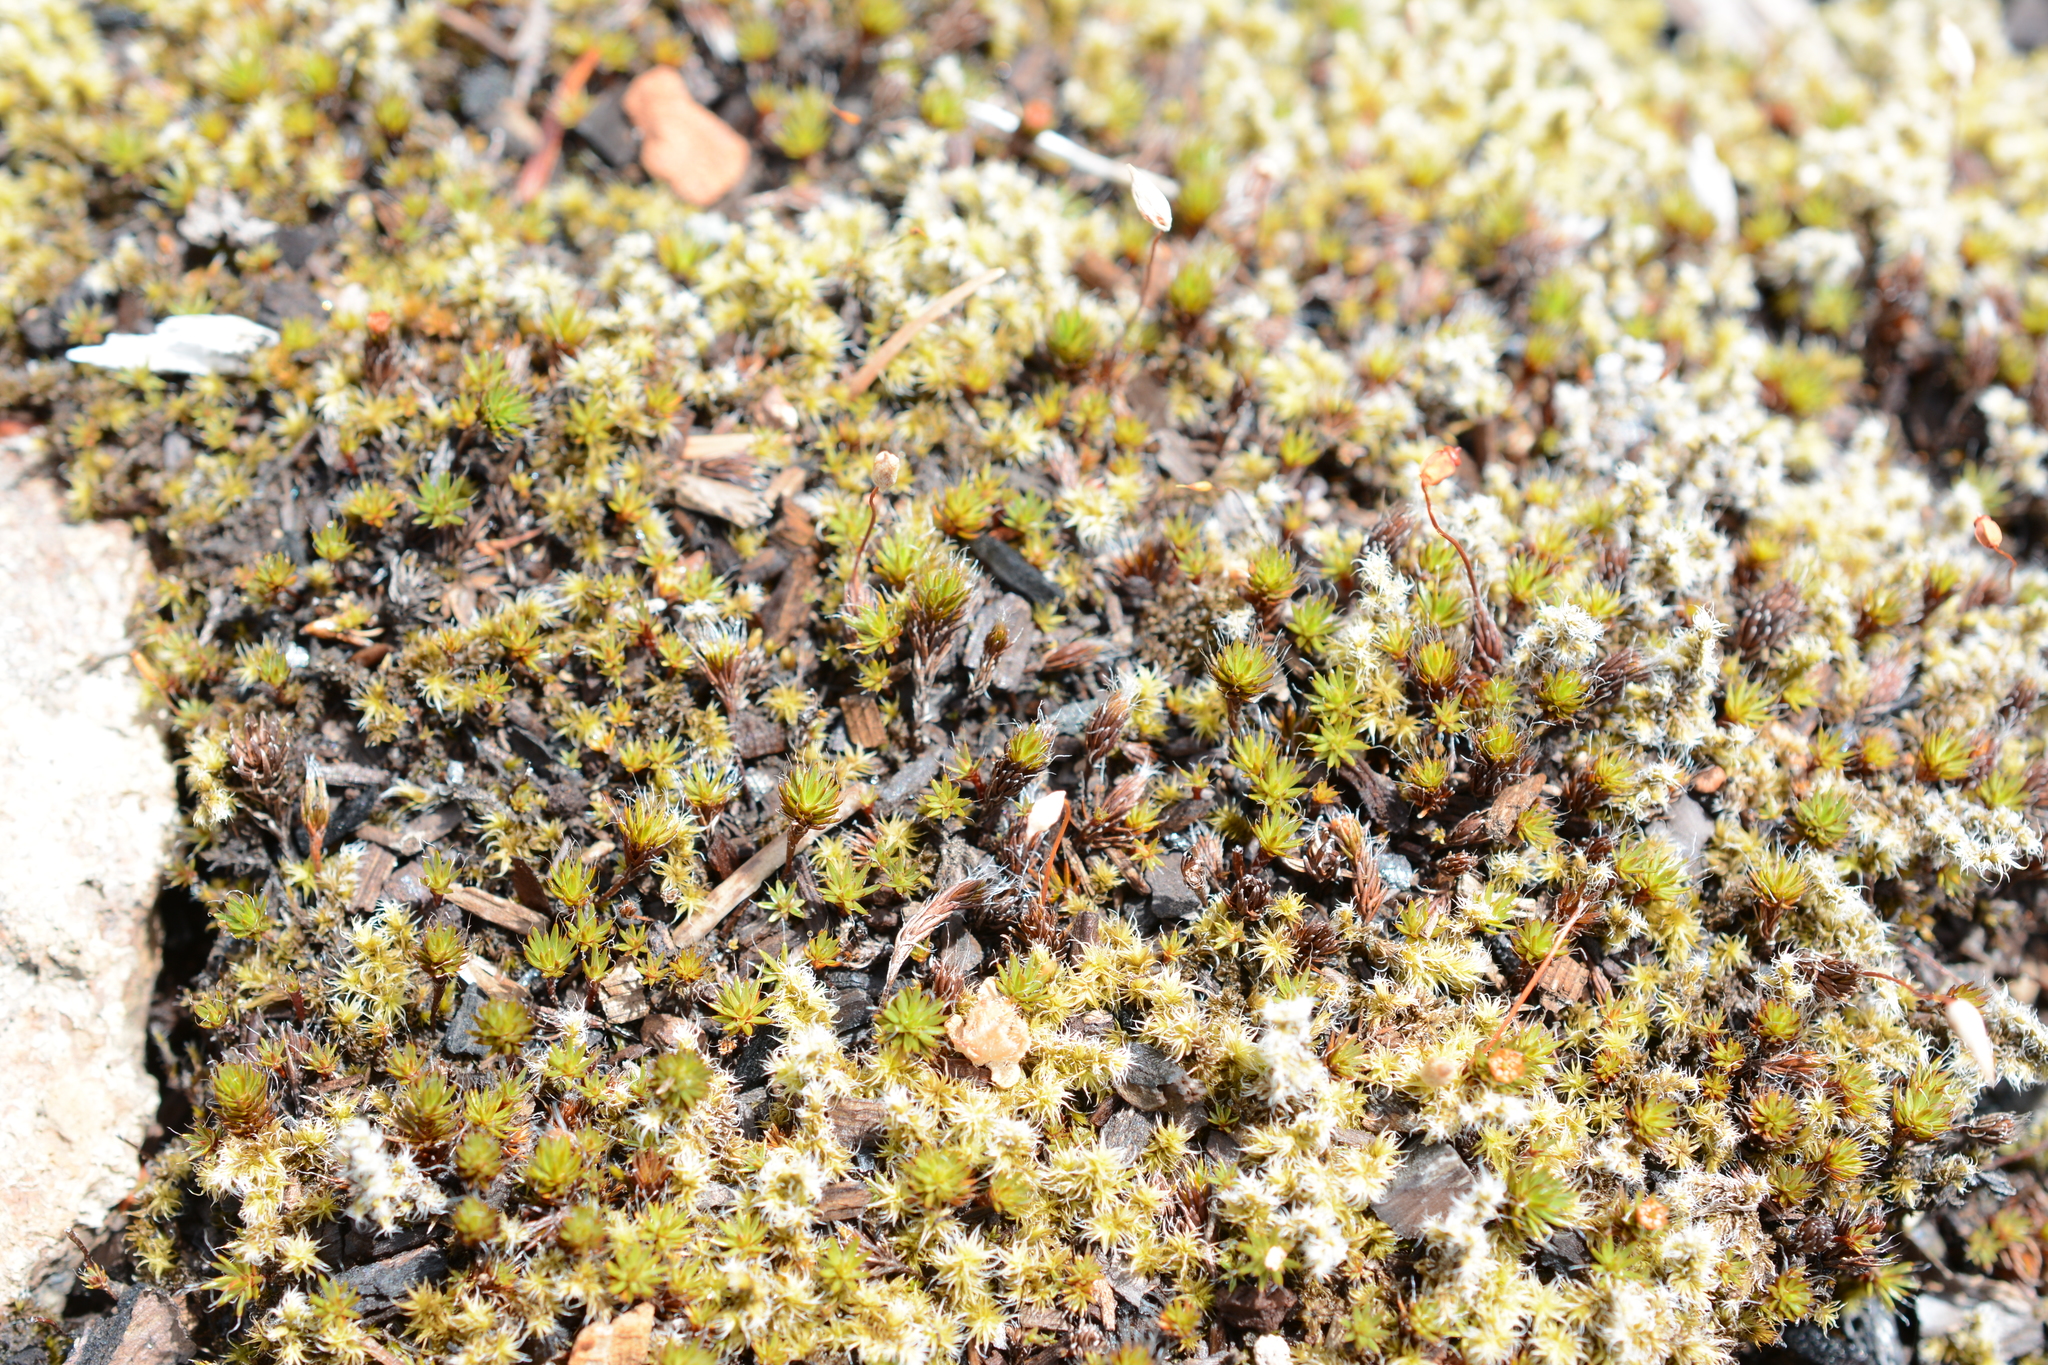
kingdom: Plantae
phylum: Bryophyta
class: Polytrichopsida
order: Polytrichales
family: Polytrichaceae
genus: Polytrichum
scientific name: Polytrichum piliferum
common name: Bristly haircap
